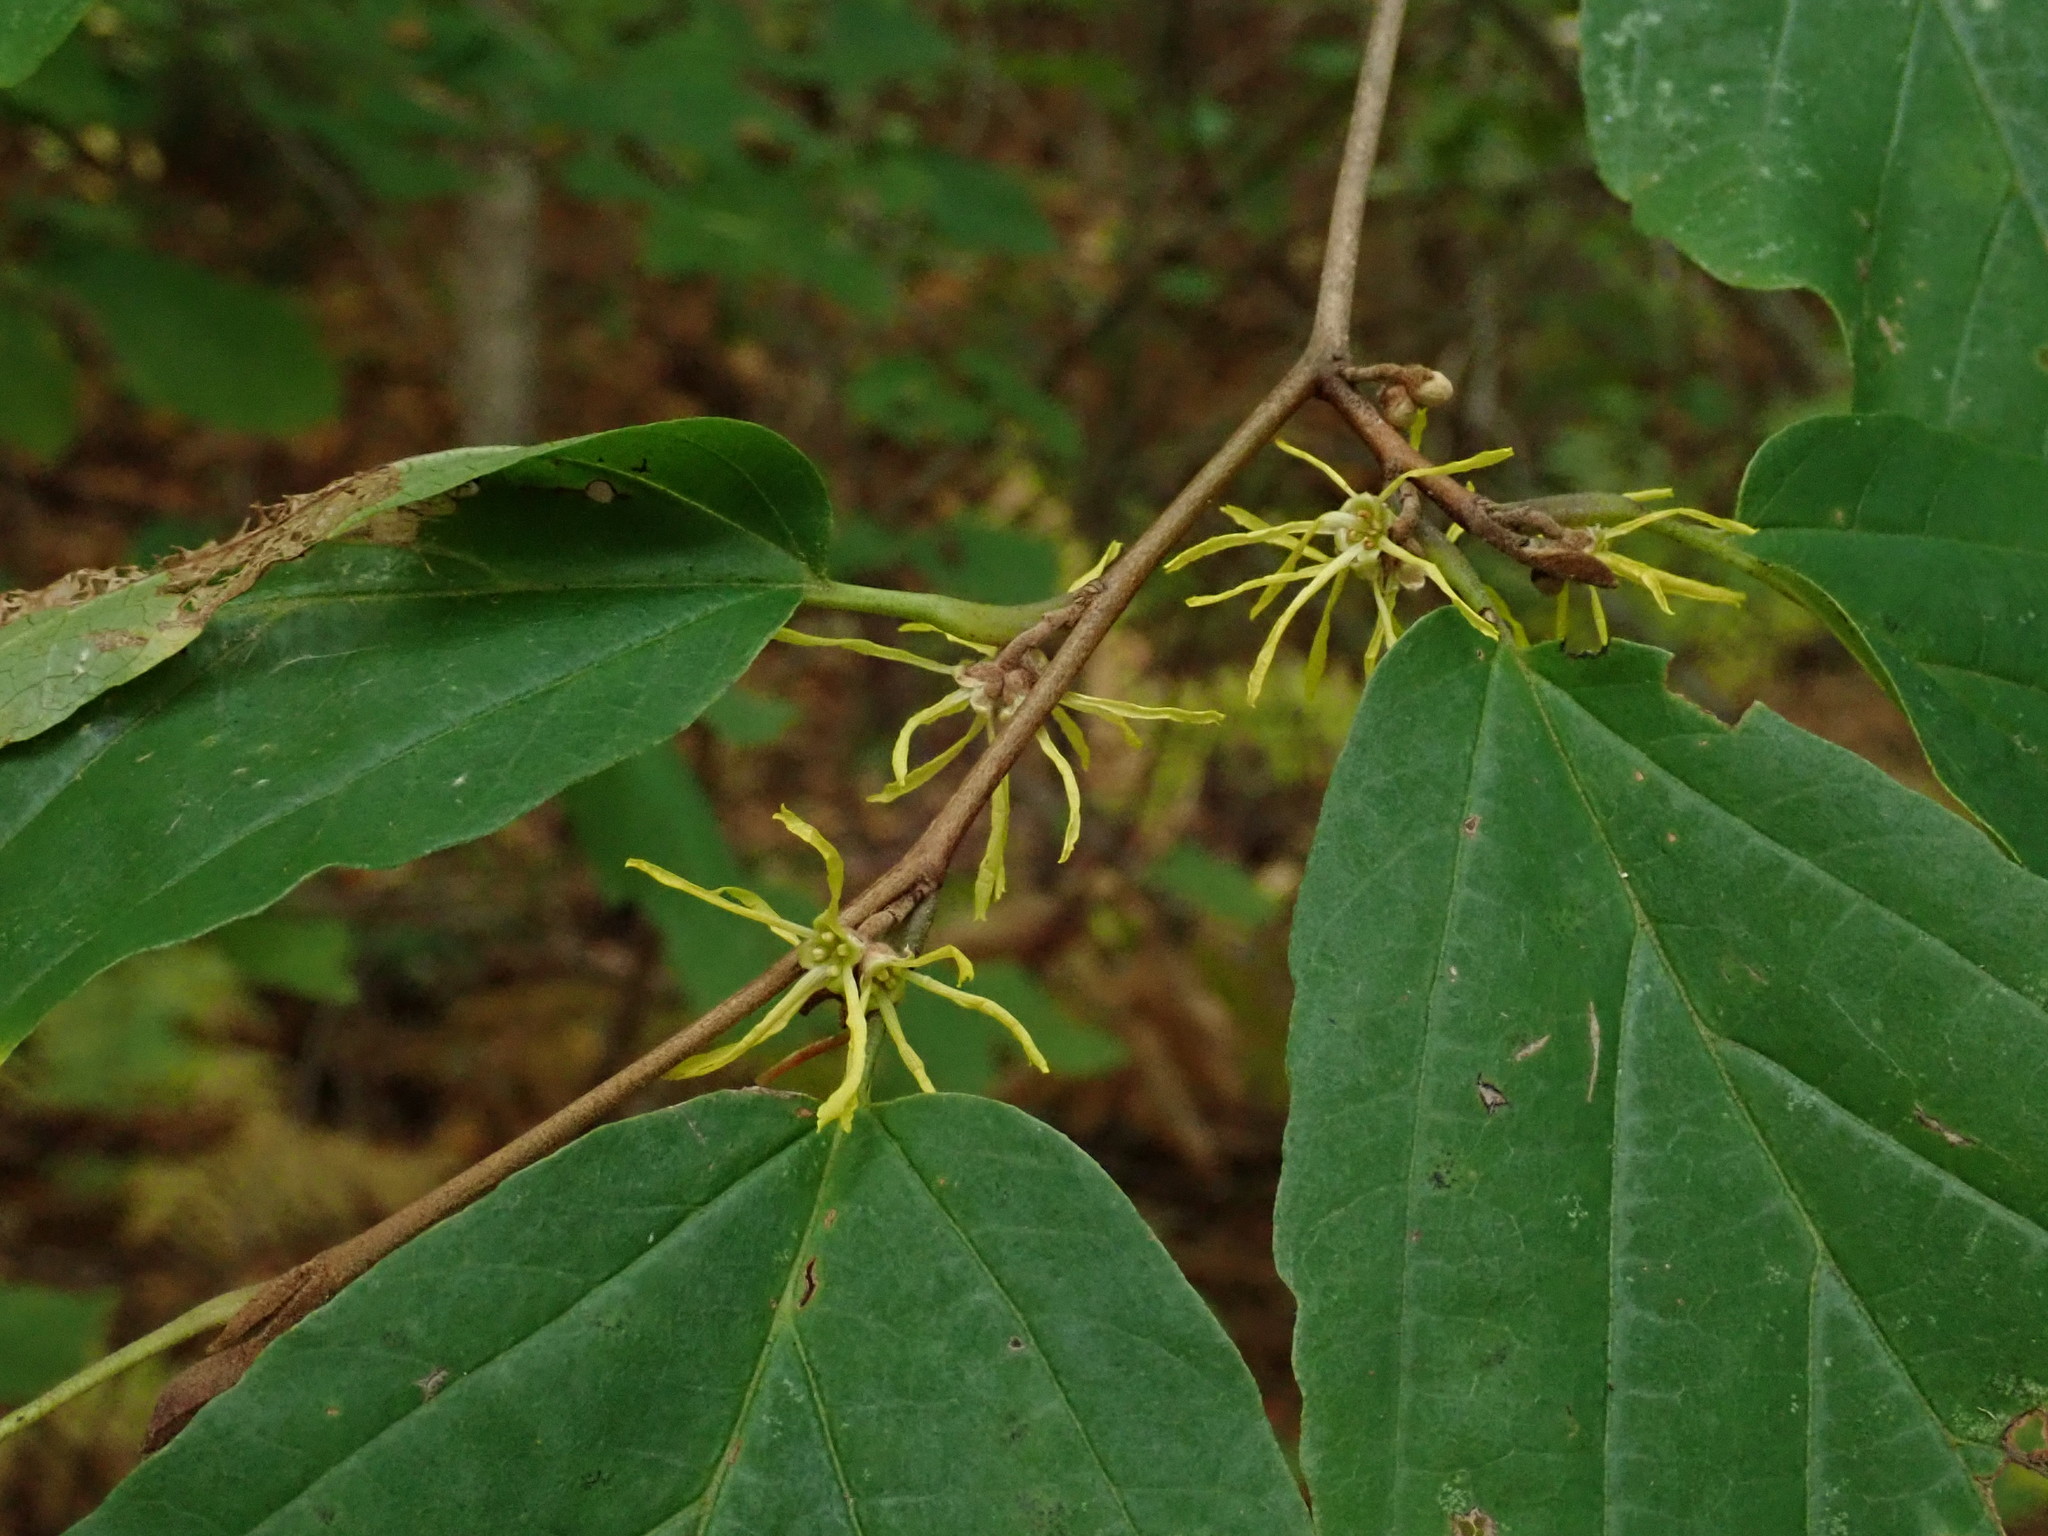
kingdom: Plantae
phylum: Tracheophyta
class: Magnoliopsida
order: Saxifragales
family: Hamamelidaceae
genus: Hamamelis
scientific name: Hamamelis virginiana
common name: Witch-hazel
